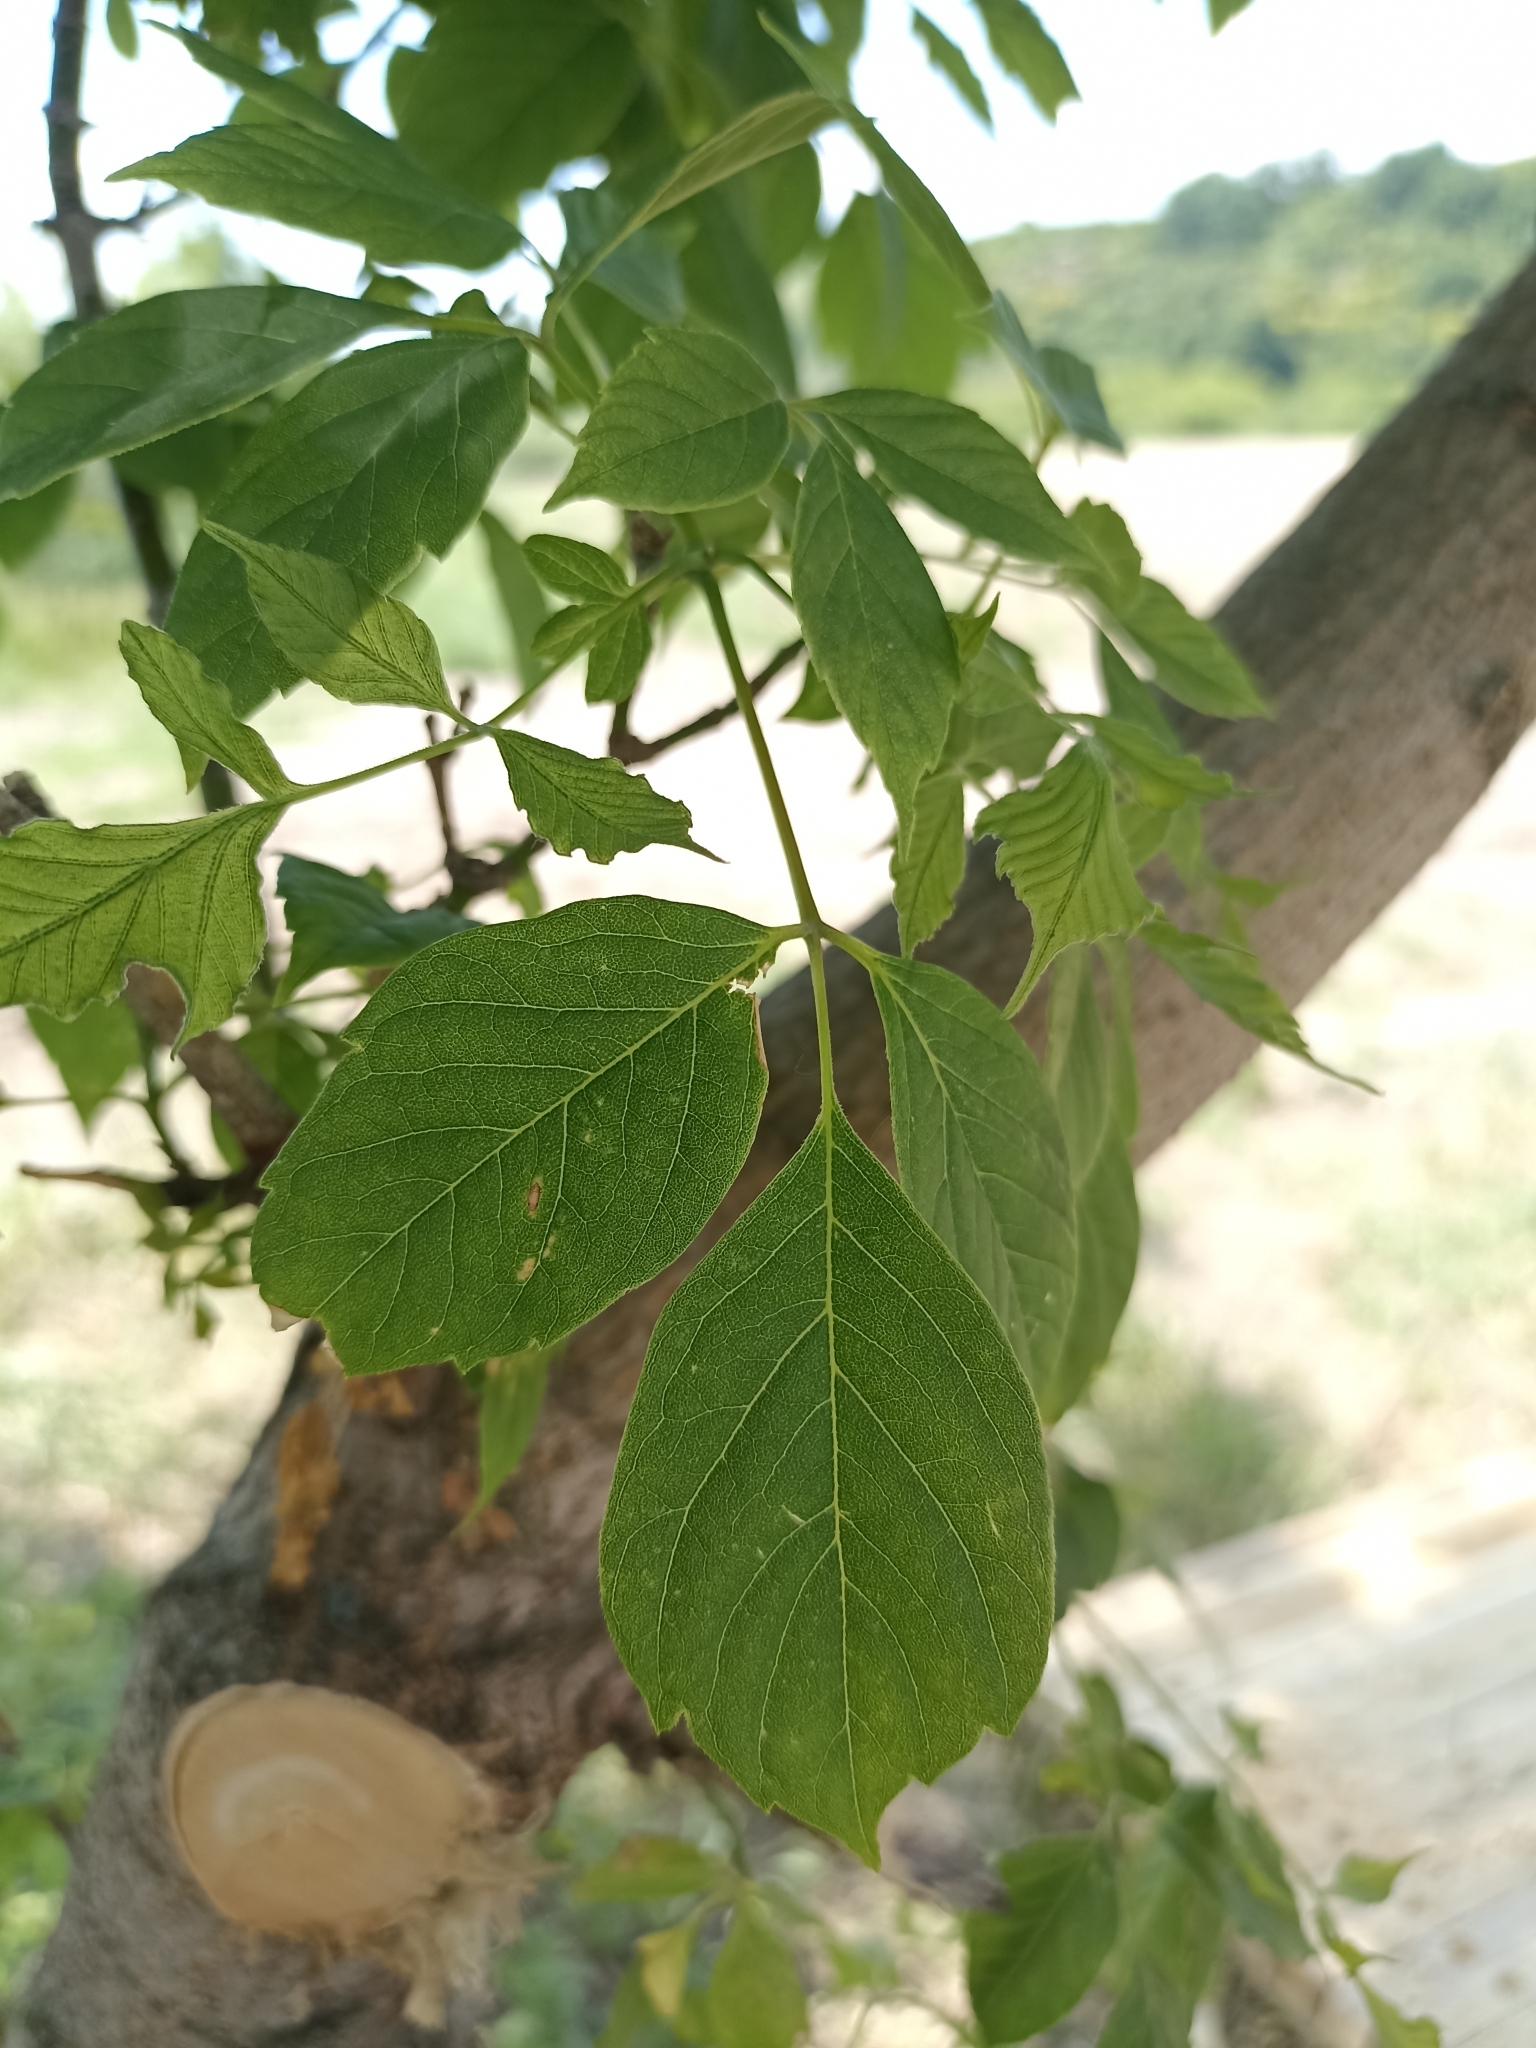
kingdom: Plantae
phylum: Tracheophyta
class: Magnoliopsida
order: Sapindales
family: Sapindaceae
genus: Acer
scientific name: Acer negundo
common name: Ashleaf maple
